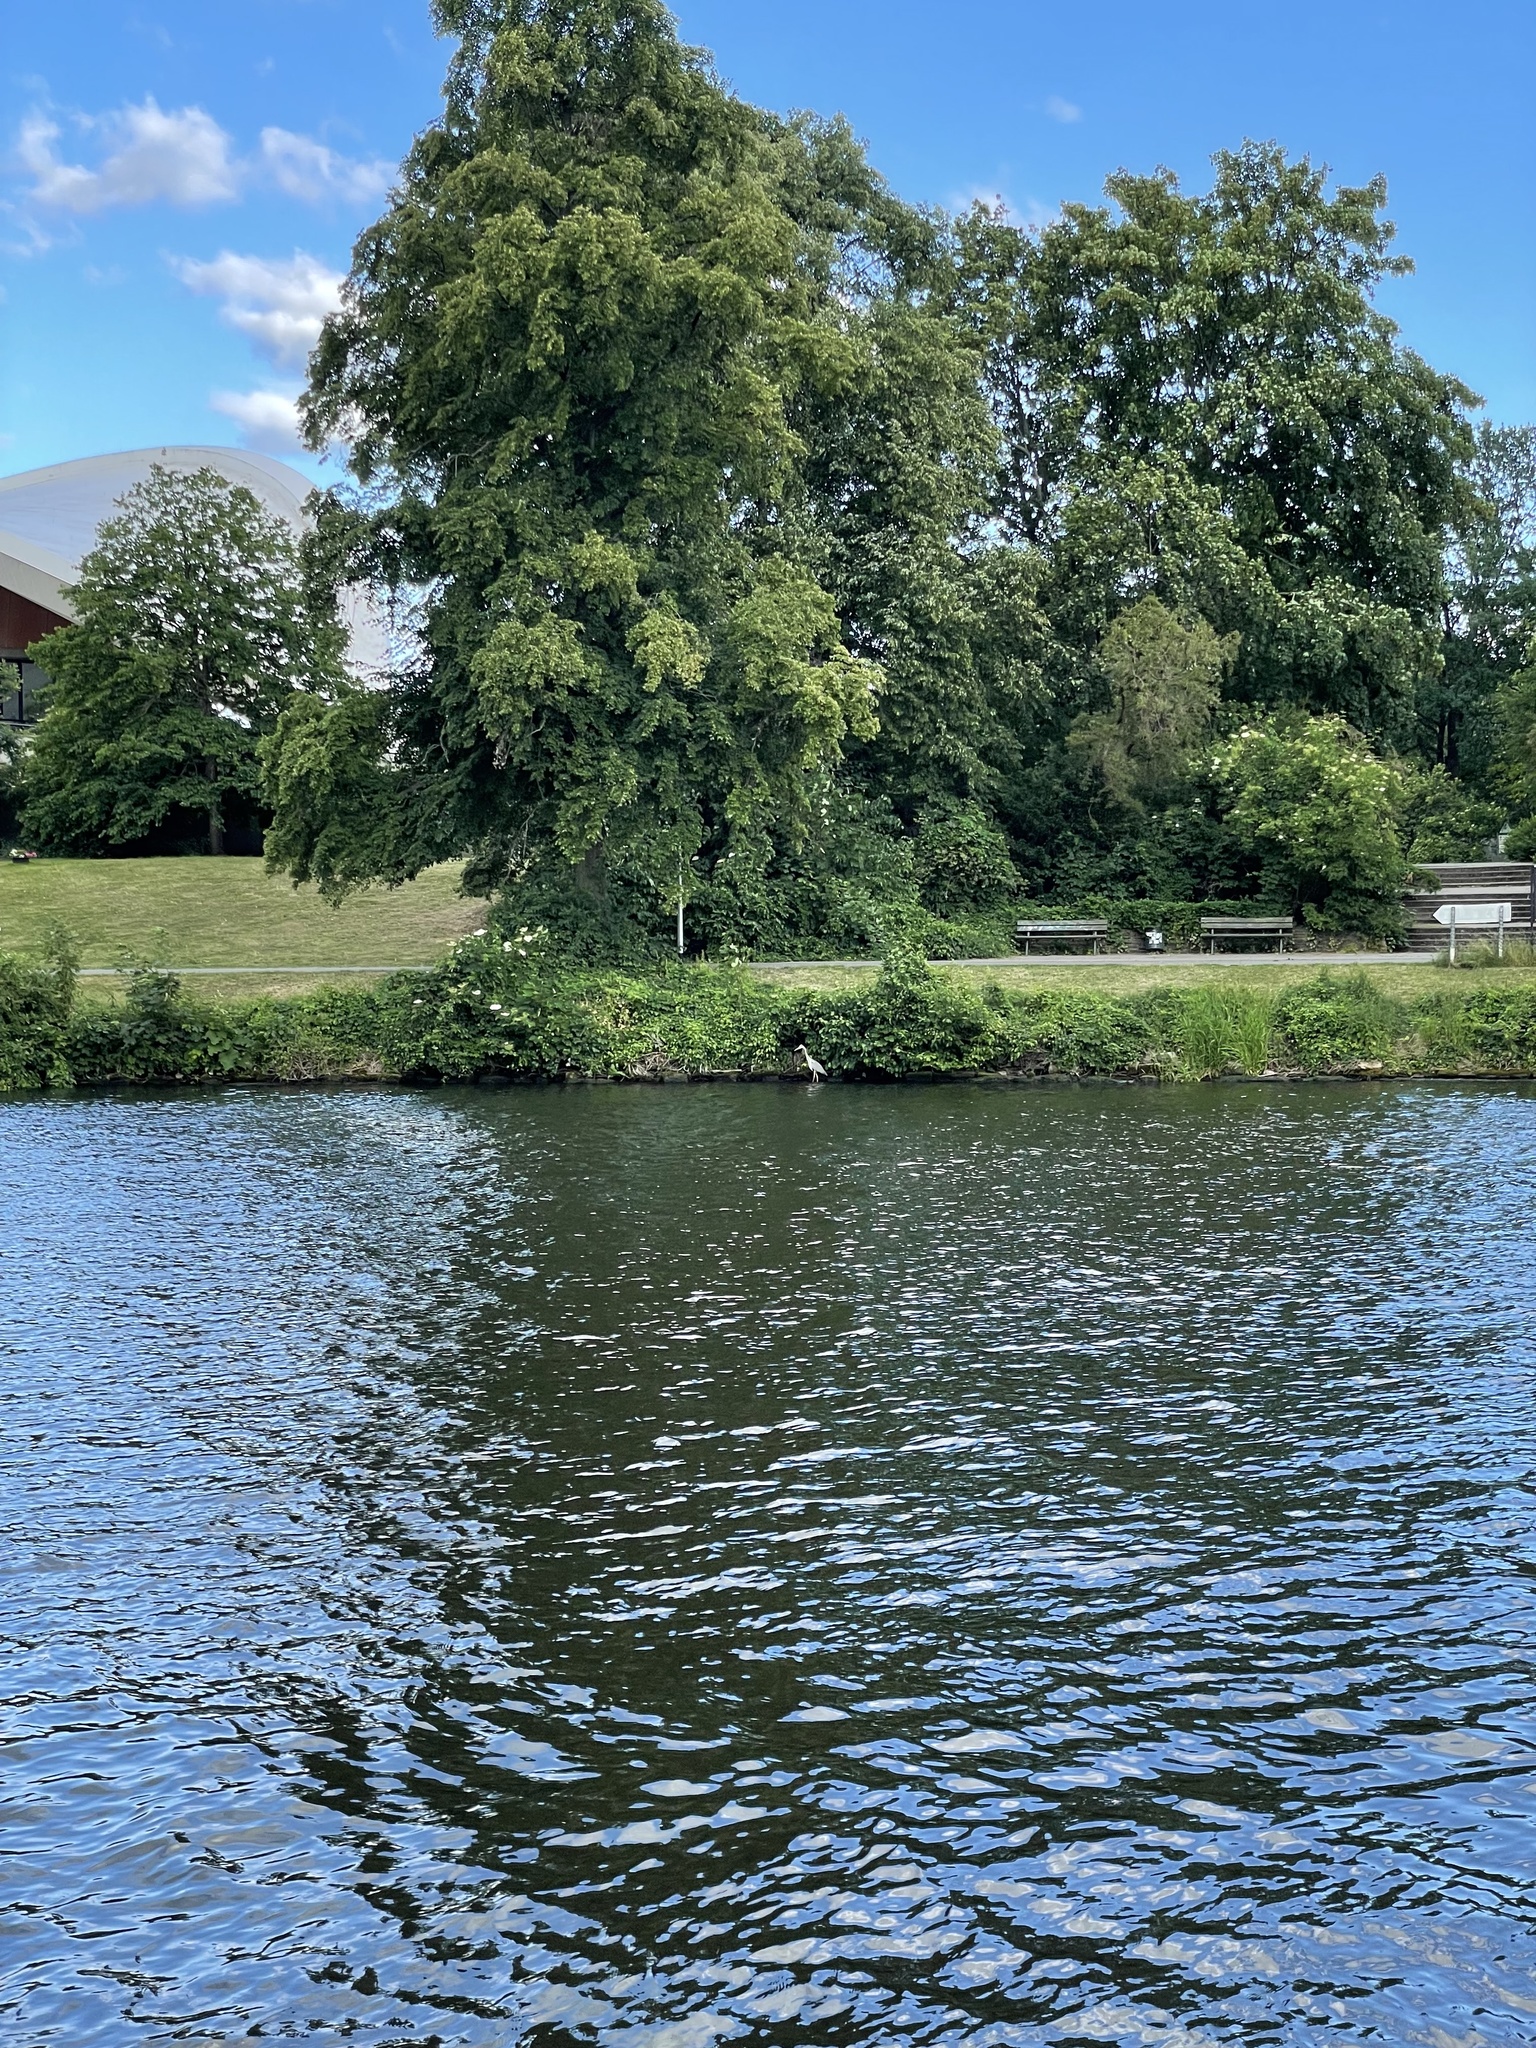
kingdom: Animalia
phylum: Chordata
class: Aves
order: Pelecaniformes
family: Ardeidae
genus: Ardea
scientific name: Ardea cinerea
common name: Grey heron
